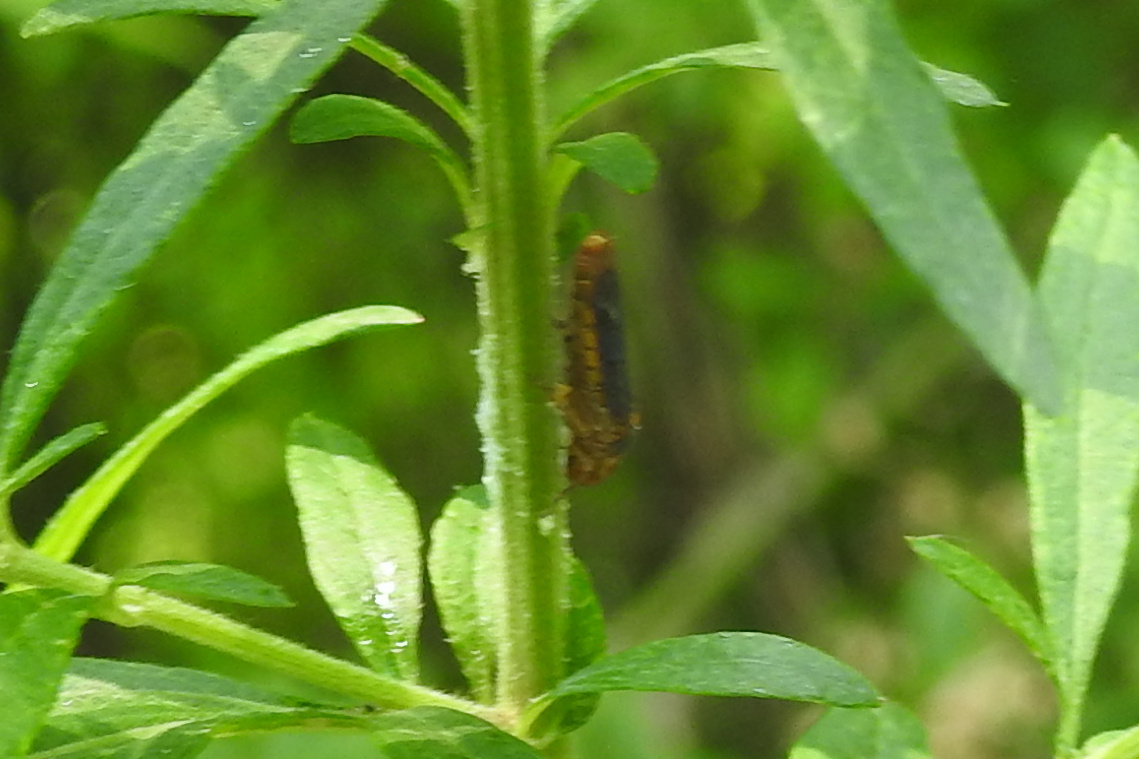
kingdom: Animalia
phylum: Arthropoda
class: Insecta
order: Hemiptera
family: Cicadellidae
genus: Oncometopia
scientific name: Oncometopia orbona
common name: Broad-headed sharpshooter
